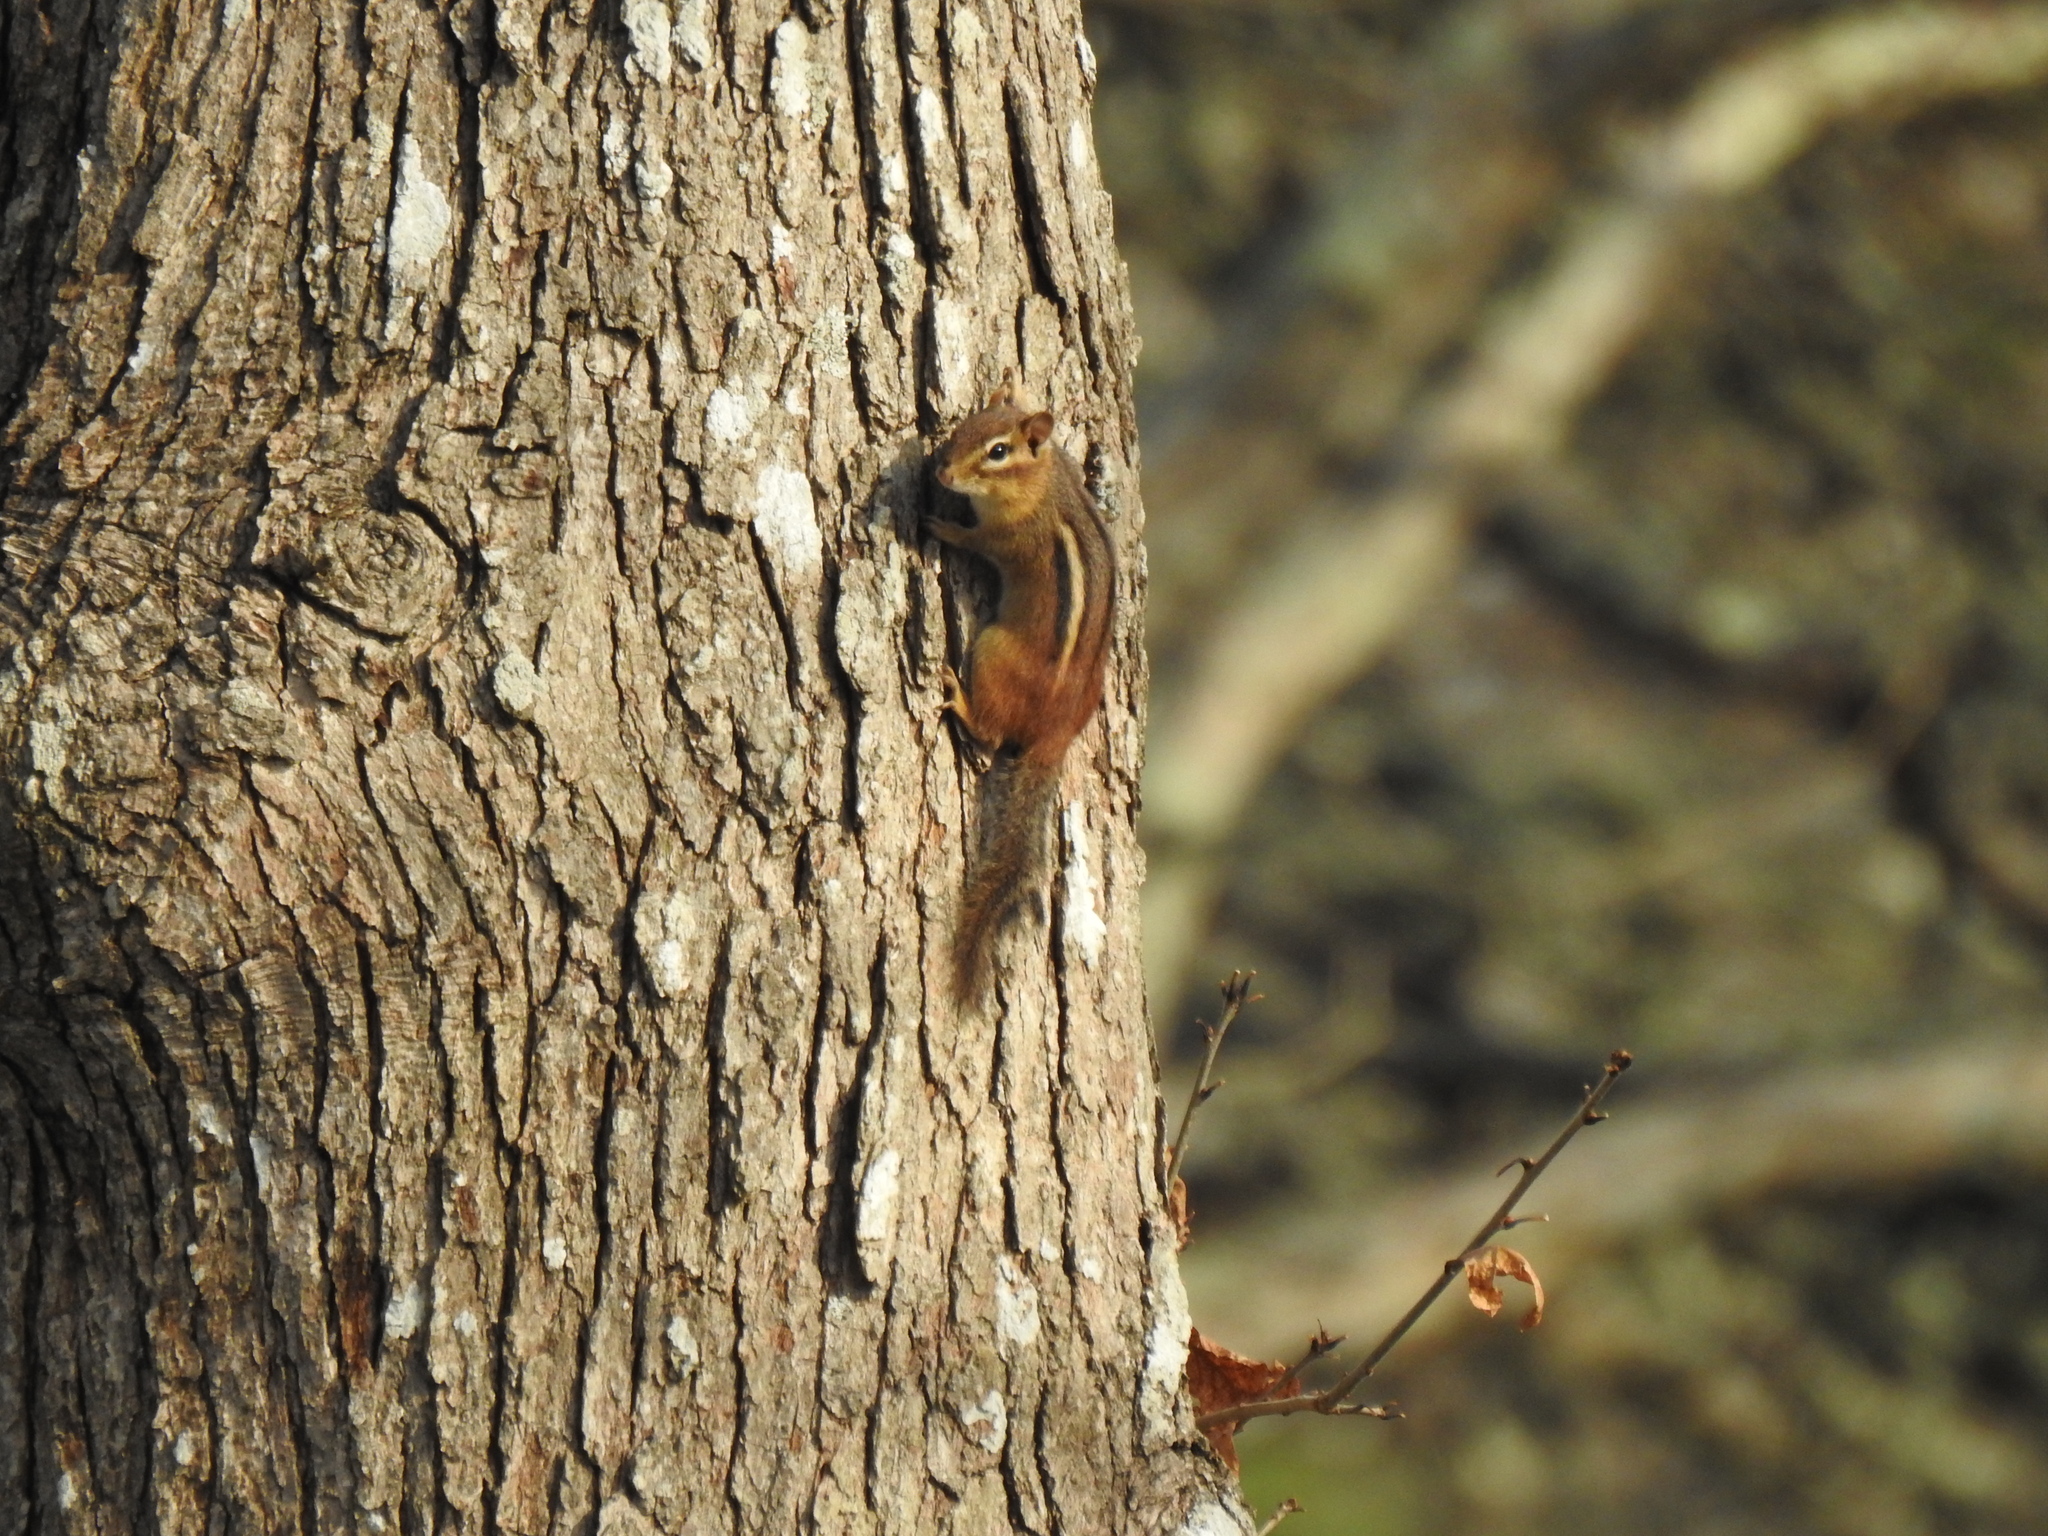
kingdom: Animalia
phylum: Chordata
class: Mammalia
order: Rodentia
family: Sciuridae
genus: Tamias
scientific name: Tamias striatus
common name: Eastern chipmunk
